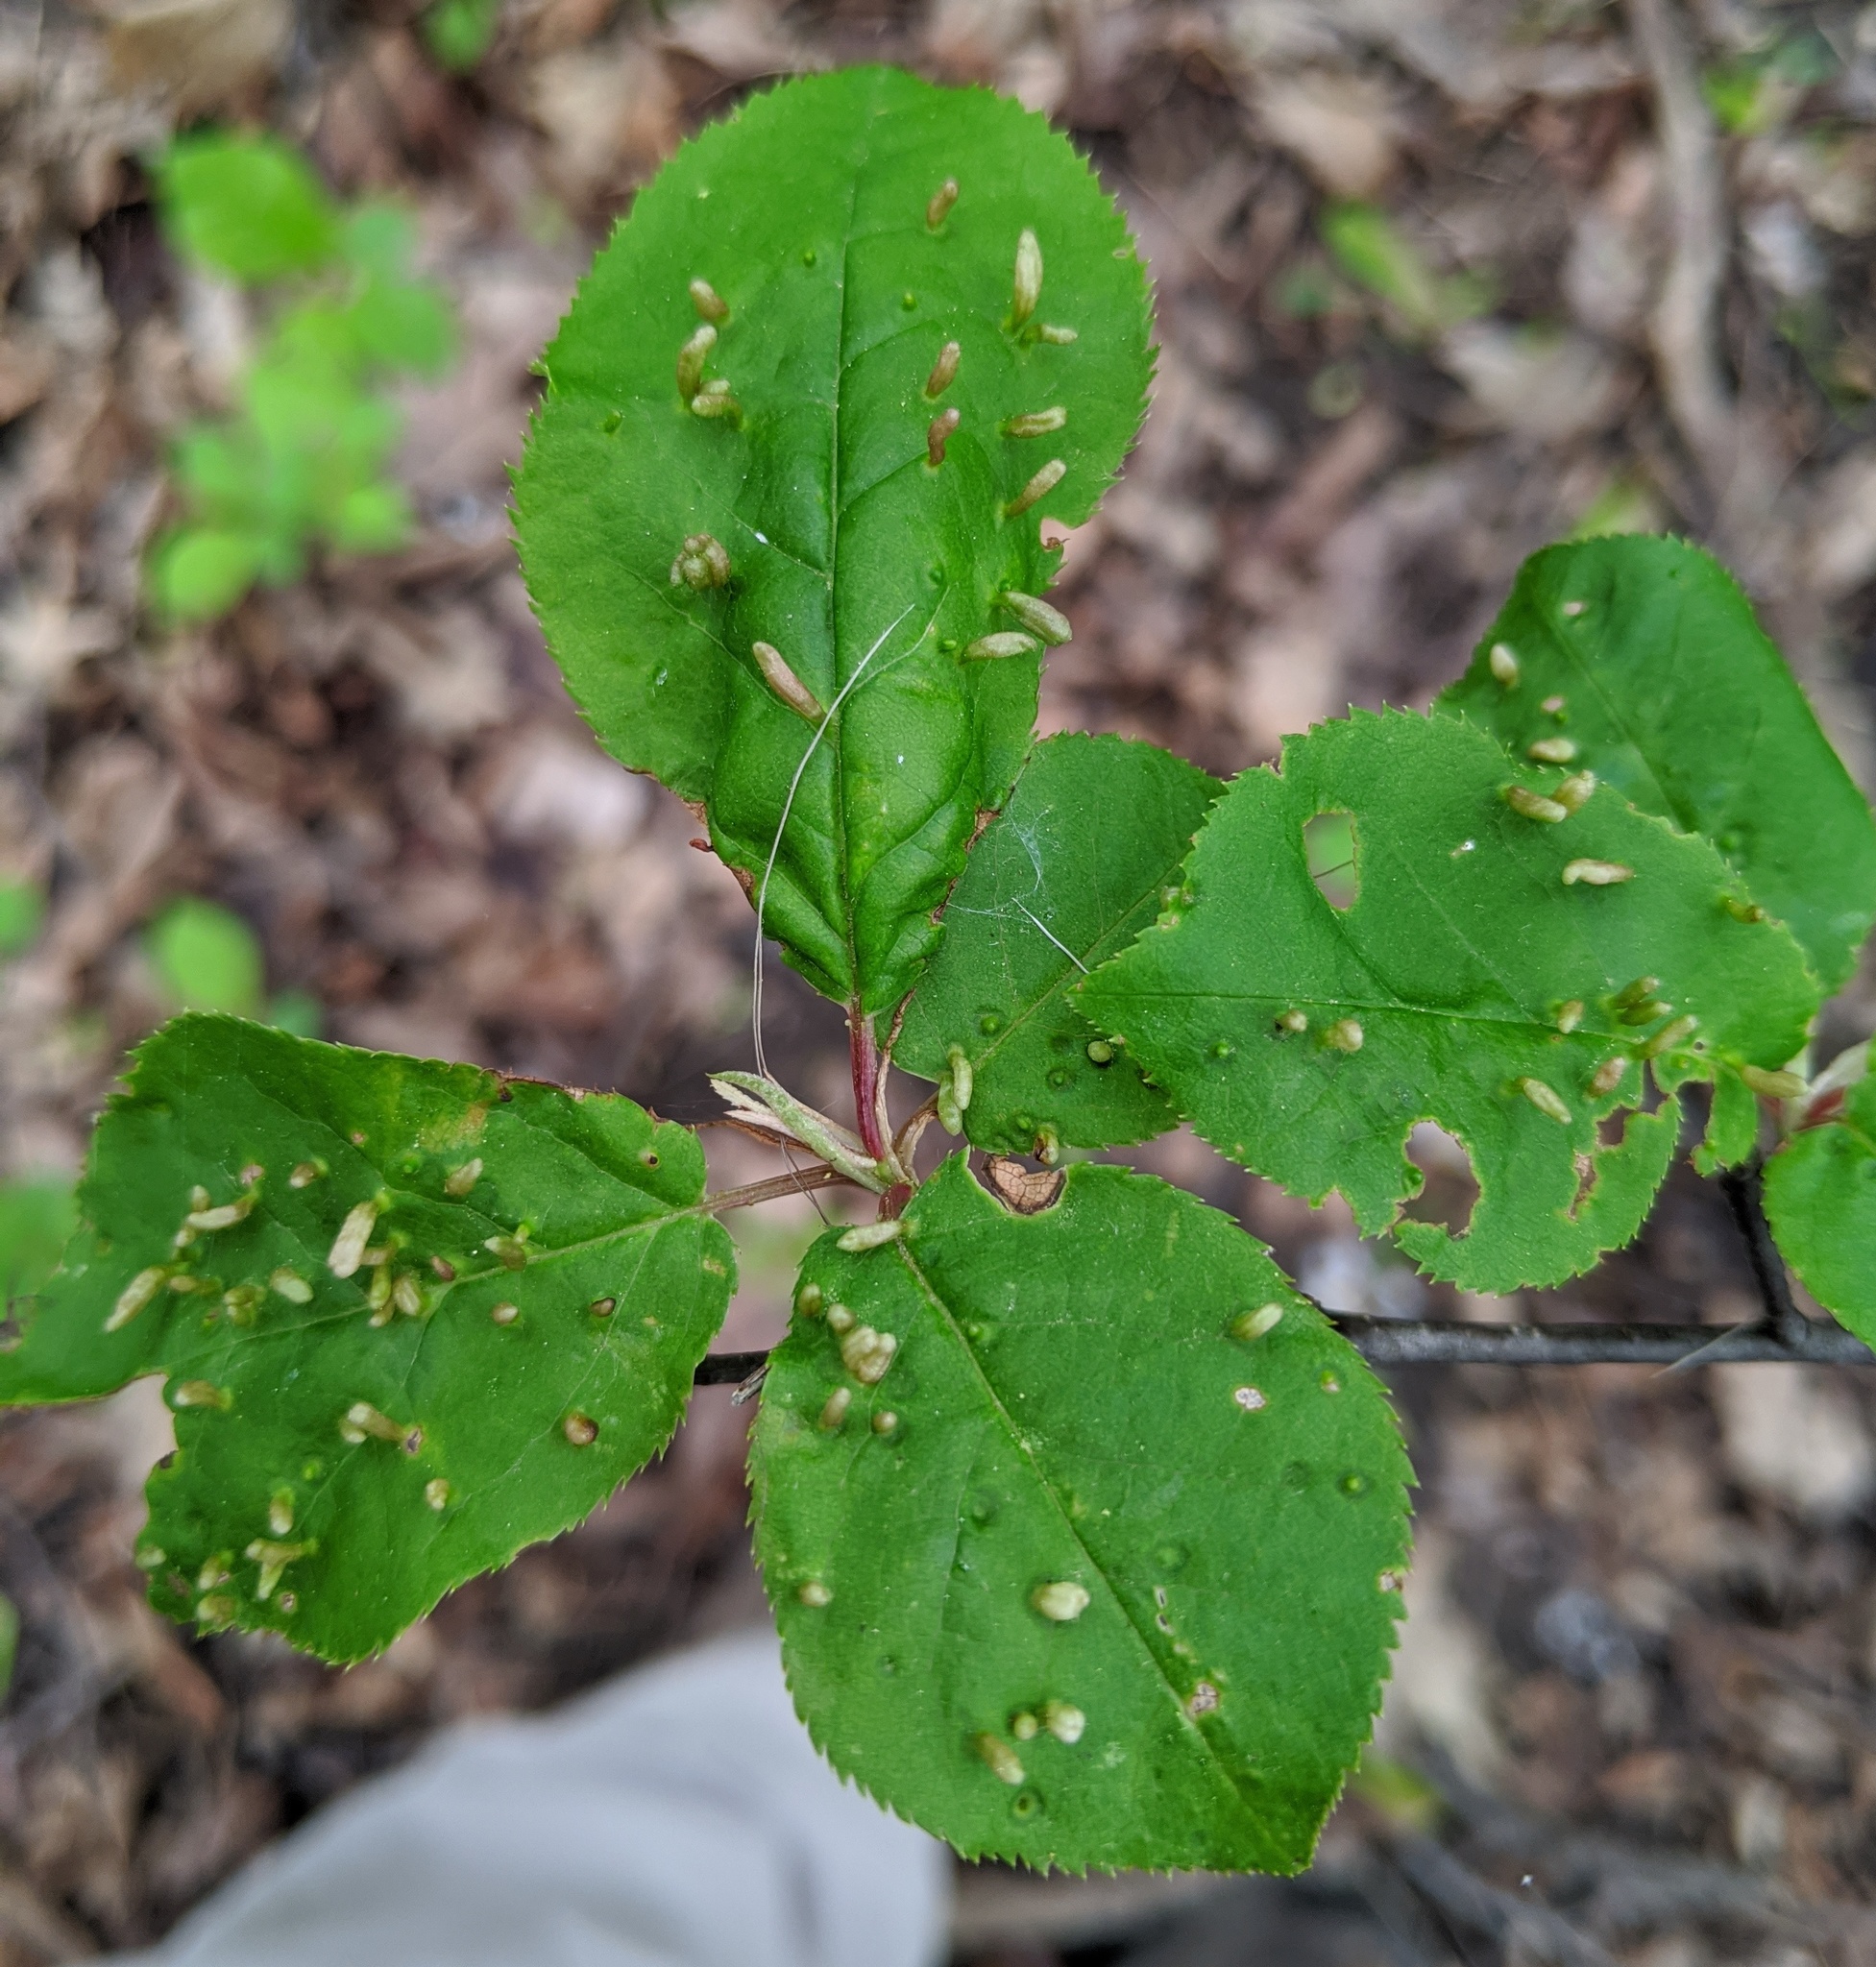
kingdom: Animalia
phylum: Arthropoda
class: Arachnida
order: Trombidiformes
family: Eriophyidae
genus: Eriophyes
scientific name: Eriophyes emarginatae
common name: Plum leaf gall mite
